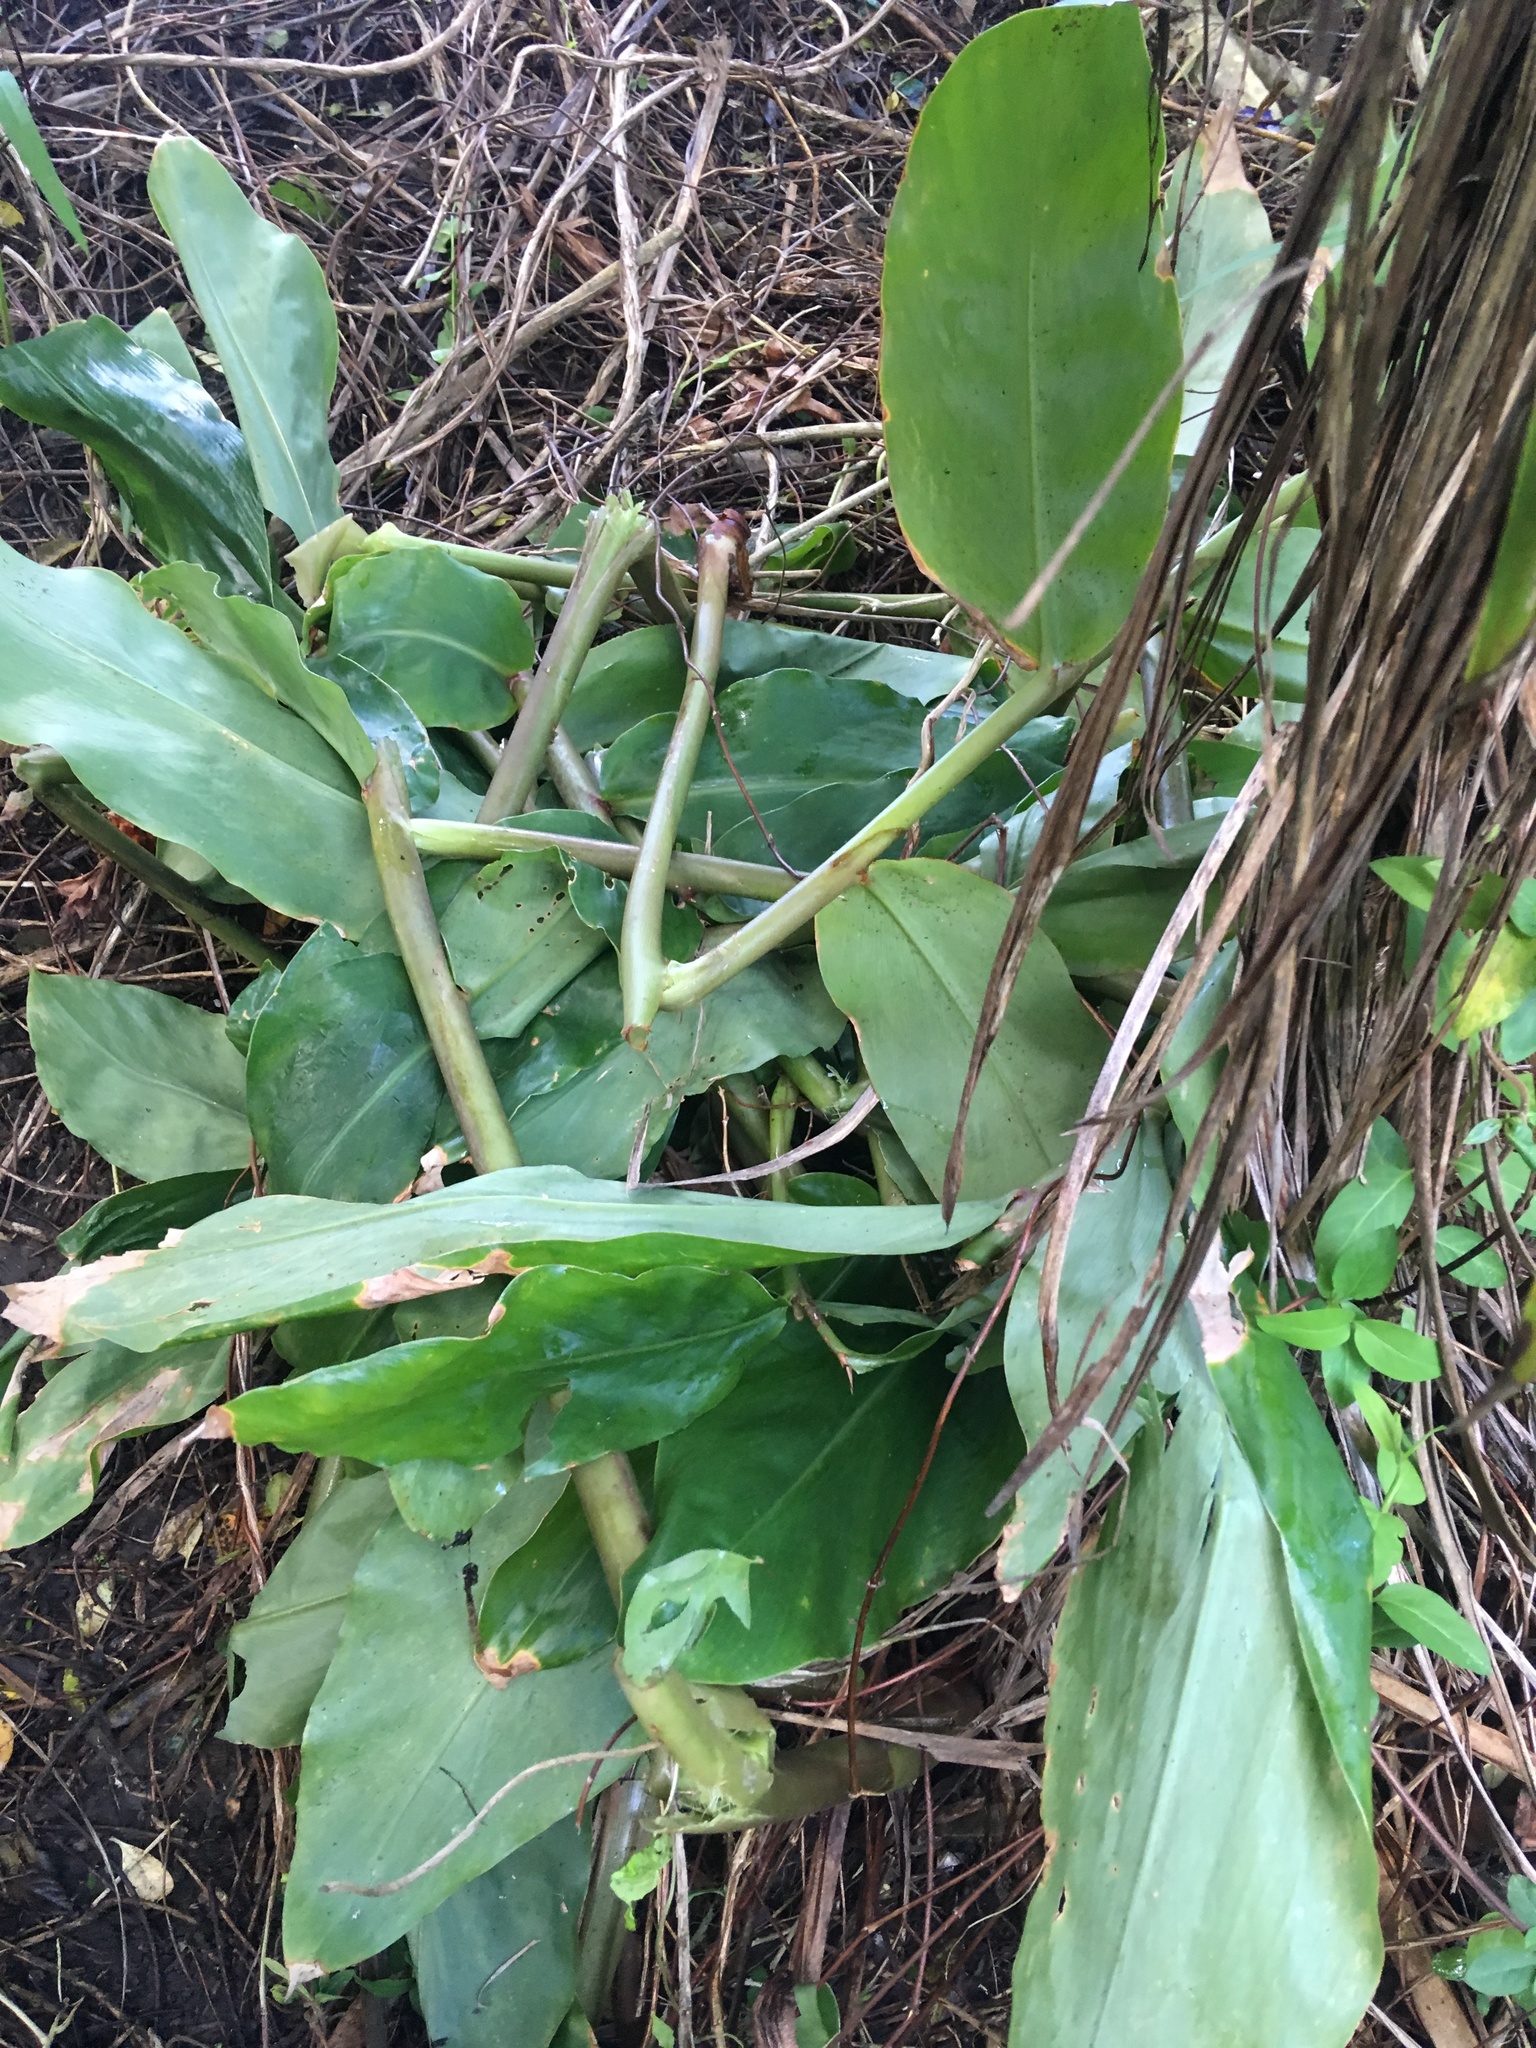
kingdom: Plantae
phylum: Tracheophyta
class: Liliopsida
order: Zingiberales
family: Zingiberaceae
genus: Hedychium
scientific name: Hedychium gardnerianum
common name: Himalayan ginger
